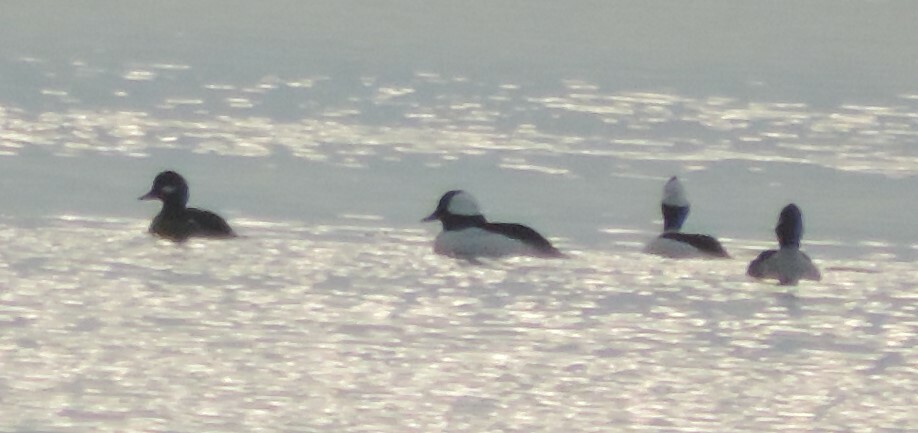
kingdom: Animalia
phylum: Chordata
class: Aves
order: Anseriformes
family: Anatidae
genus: Bucephala
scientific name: Bucephala albeola
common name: Bufflehead
